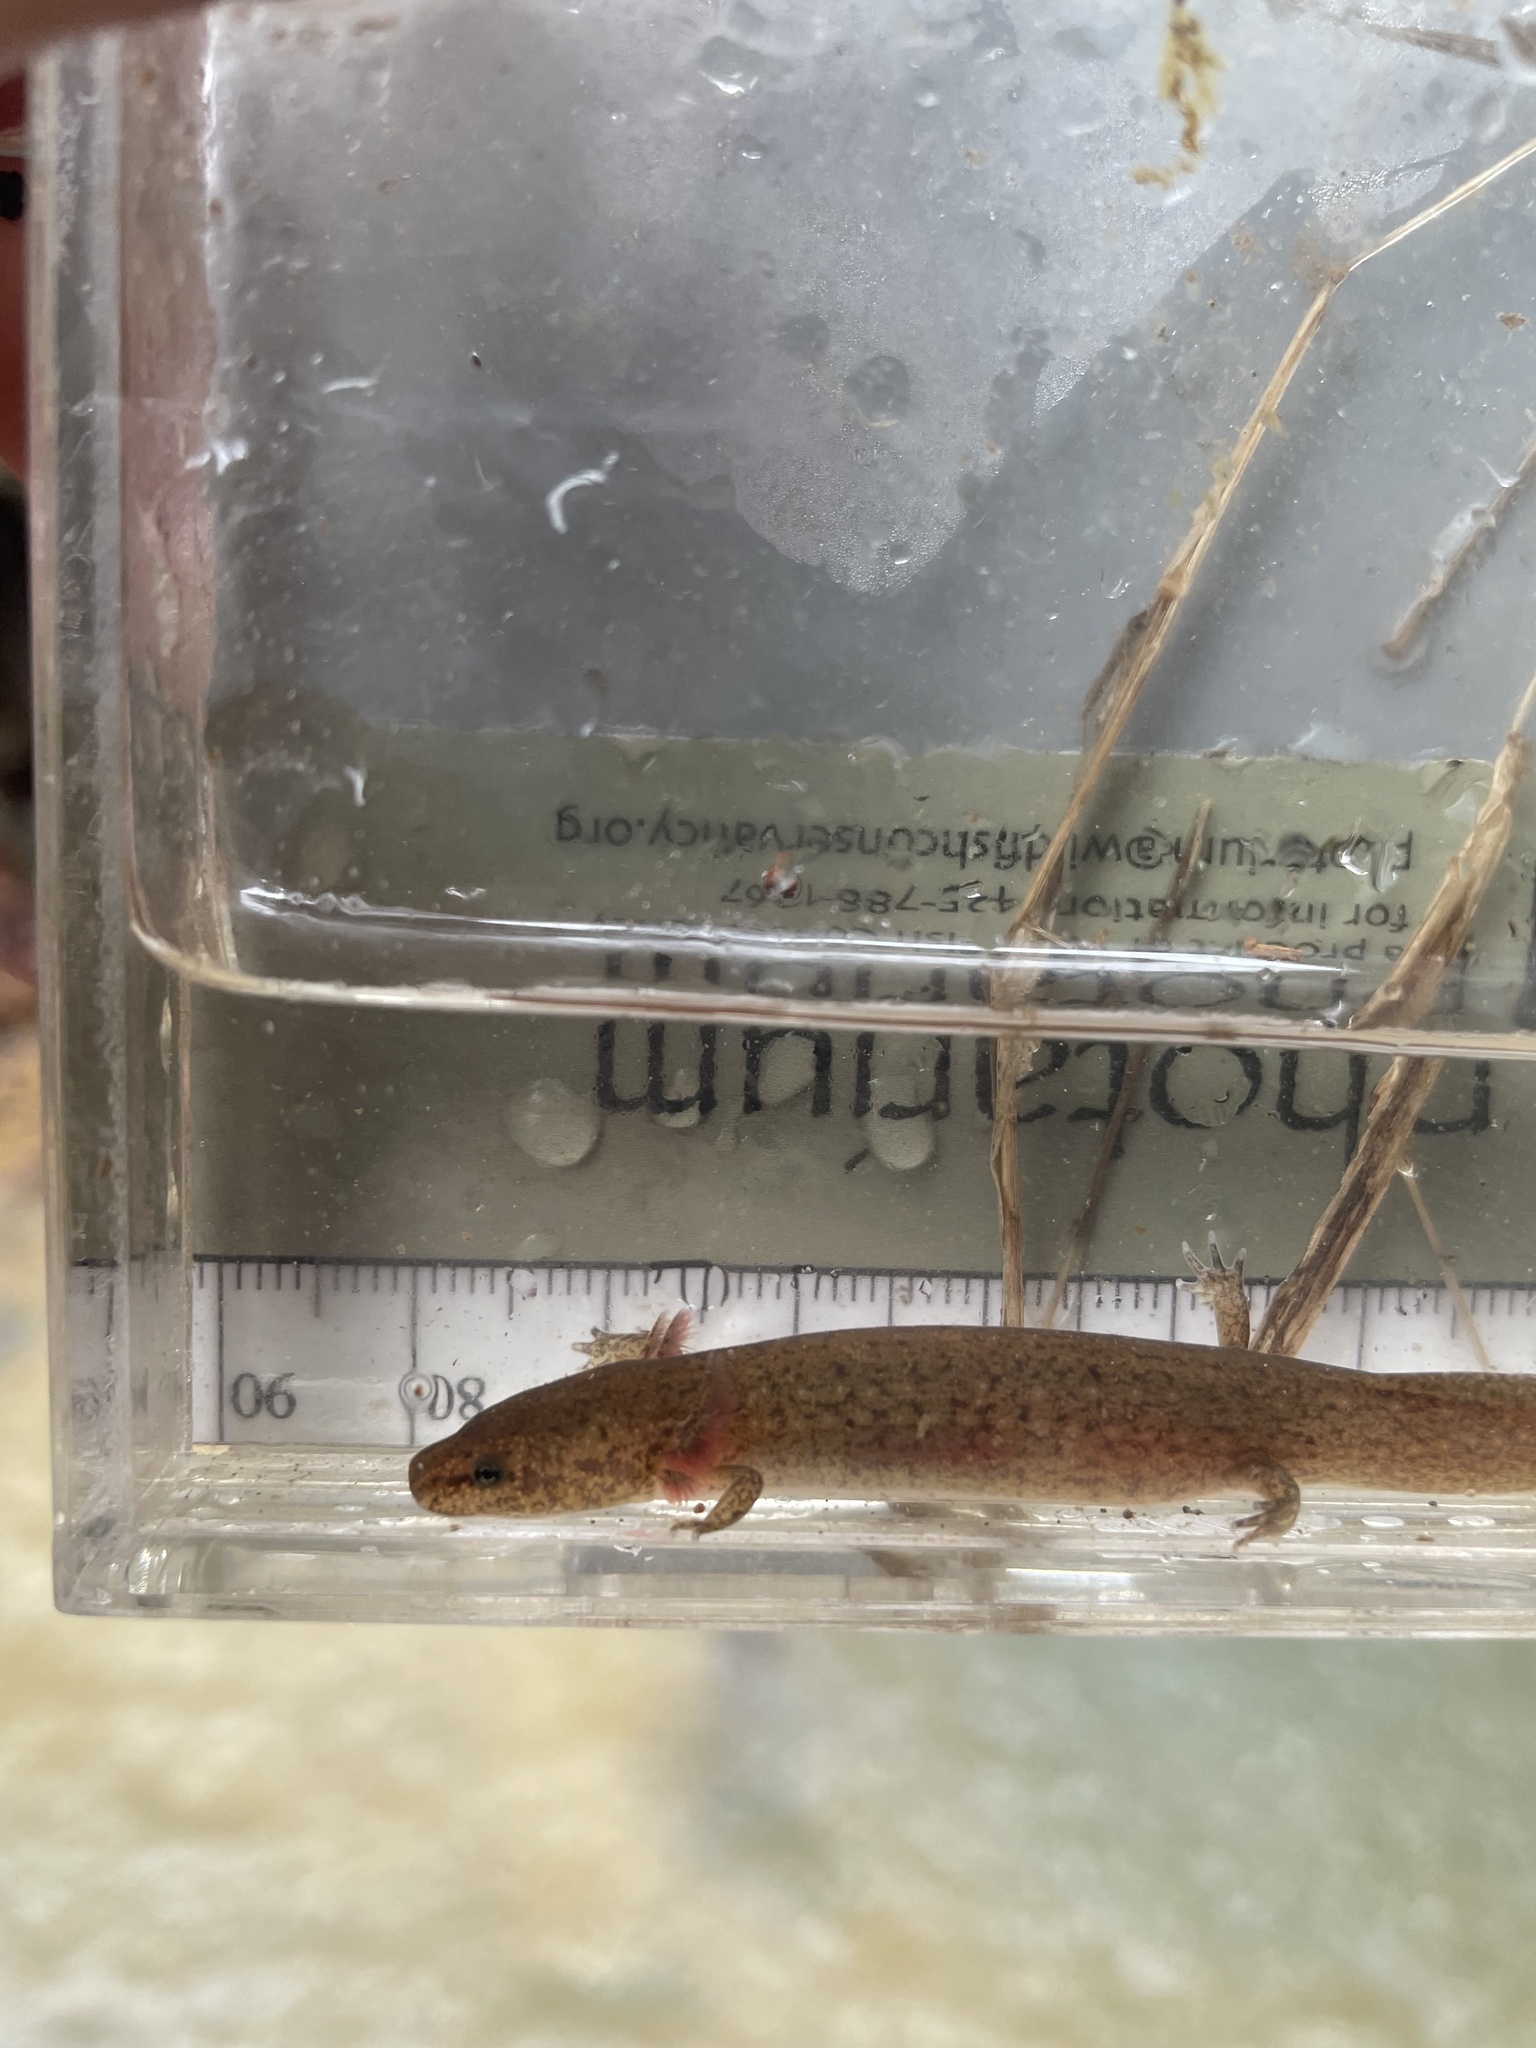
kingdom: Animalia
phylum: Chordata
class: Amphibia
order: Caudata
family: Plethodontidae
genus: Pseudotriton
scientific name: Pseudotriton ruber
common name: Red salamander
